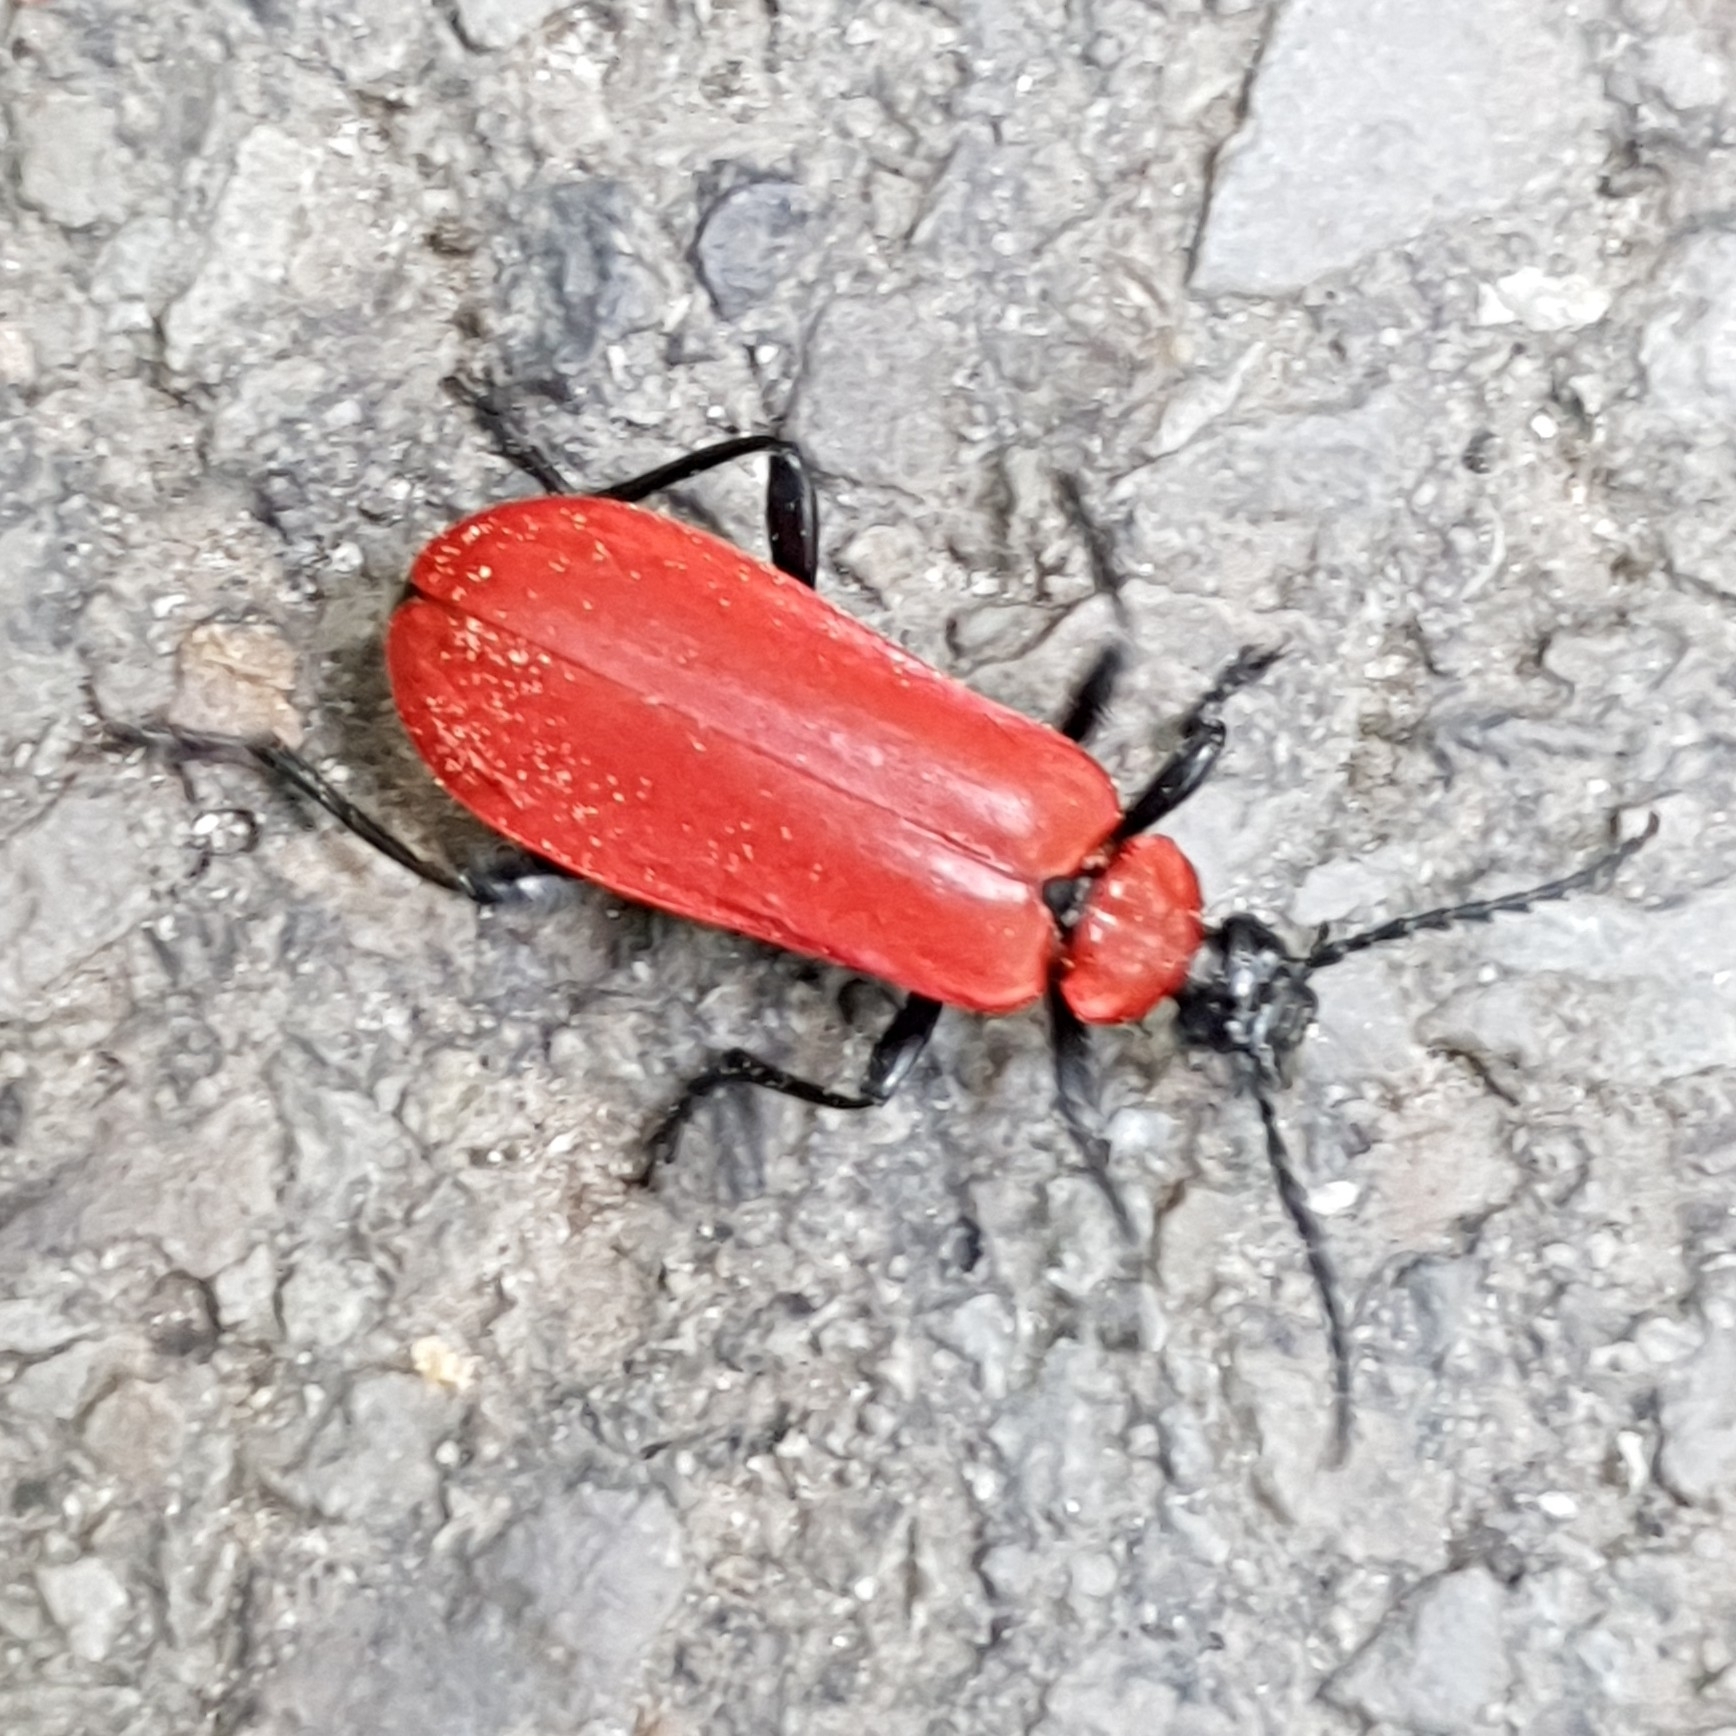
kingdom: Animalia
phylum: Arthropoda
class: Insecta
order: Coleoptera
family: Pyrochroidae
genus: Pyrochroa
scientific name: Pyrochroa coccinea
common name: Black-headed cardinal beetle
